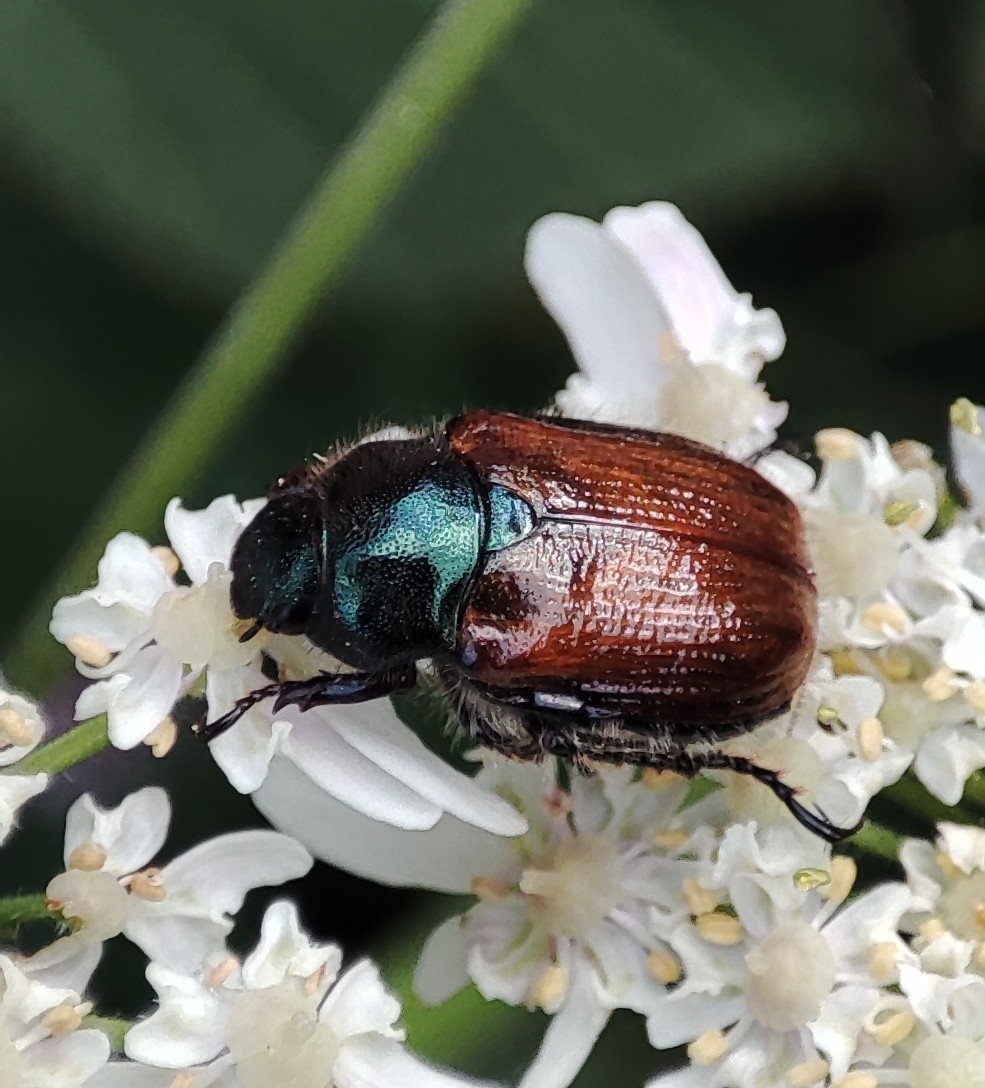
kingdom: Animalia
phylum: Arthropoda
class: Insecta
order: Coleoptera
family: Scarabaeidae
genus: Phyllopertha
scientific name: Phyllopertha horticola
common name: Garden chafer
